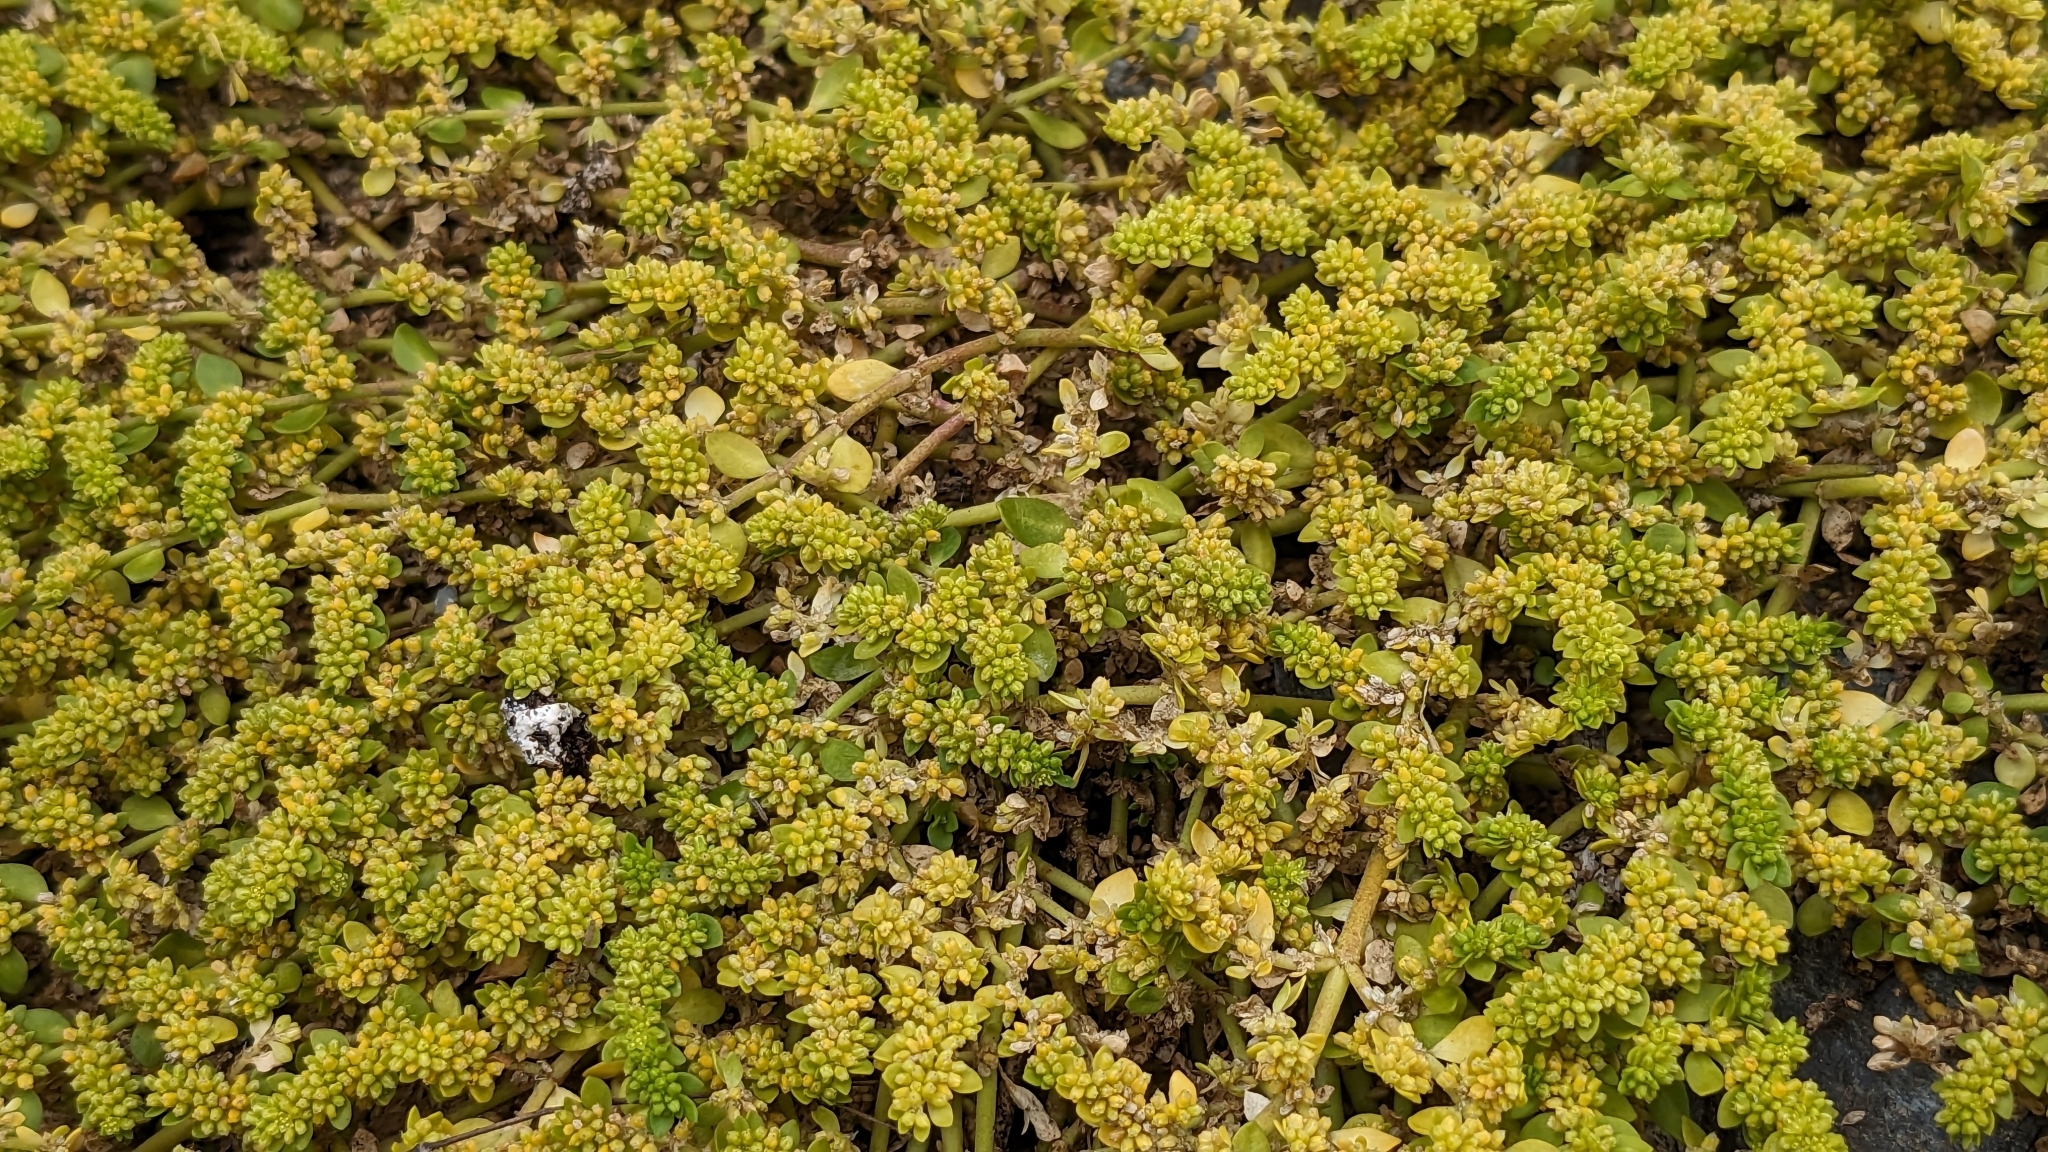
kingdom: Plantae
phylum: Tracheophyta
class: Magnoliopsida
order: Caryophyllales
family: Caryophyllaceae
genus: Herniaria
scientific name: Herniaria glabra
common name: Smooth rupturewort
